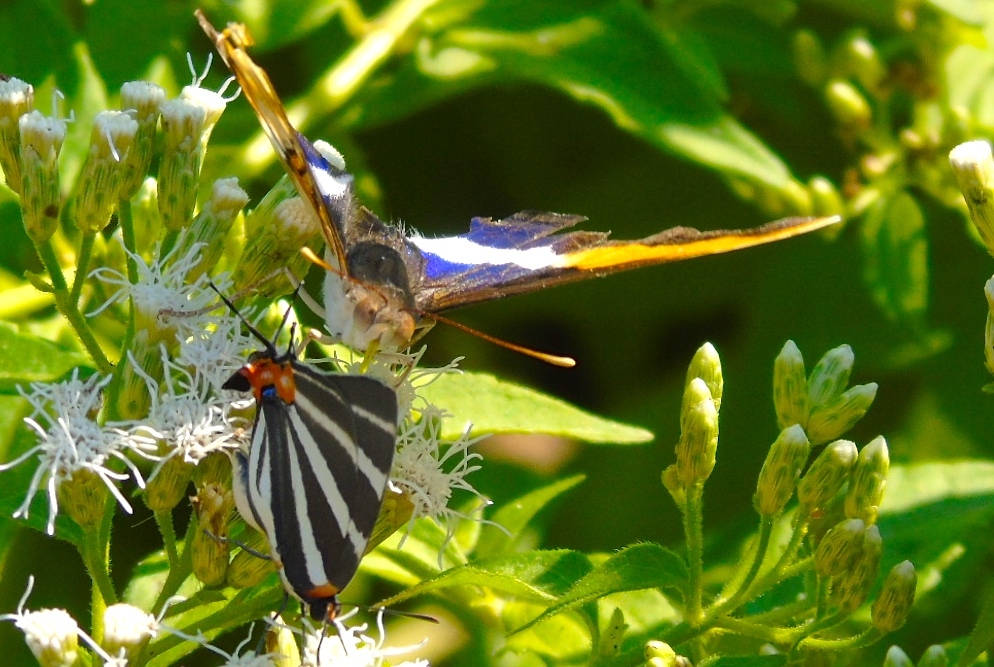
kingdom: Animalia
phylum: Arthropoda
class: Insecta
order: Lepidoptera
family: Lycaenidae
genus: Thecla
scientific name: Thecla bathildis
